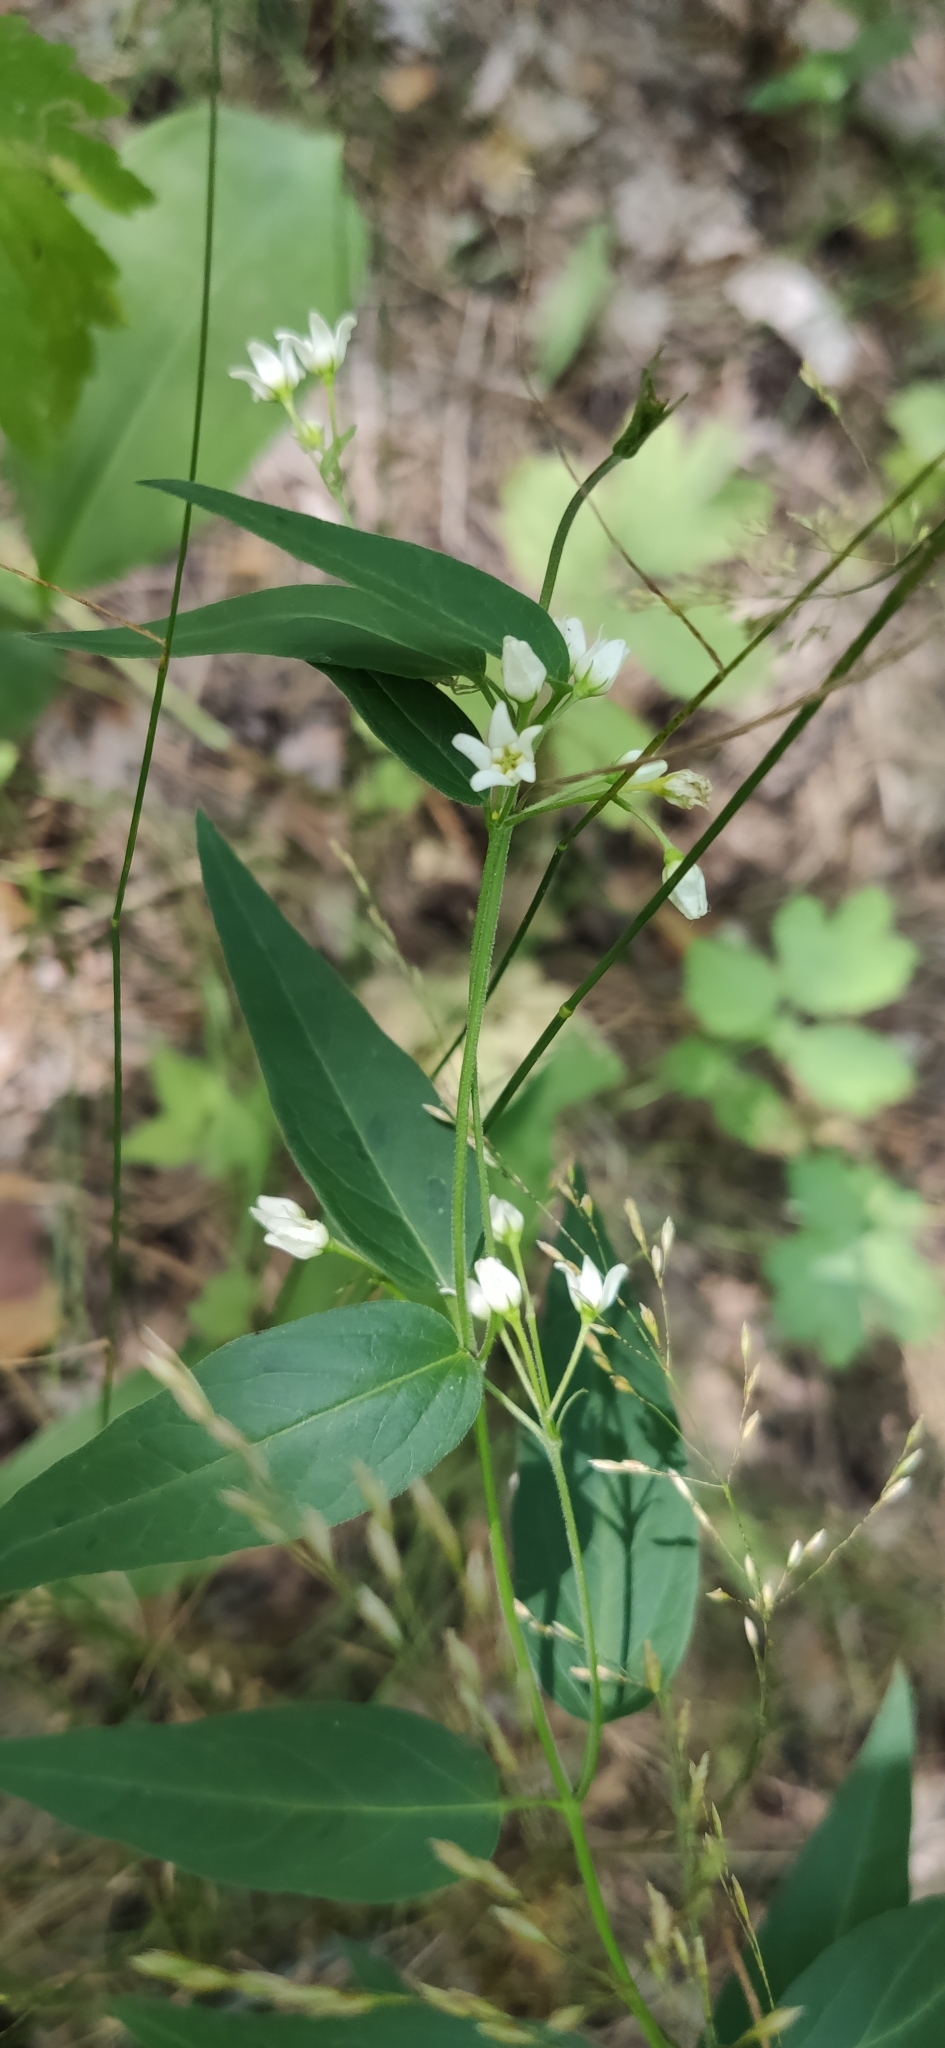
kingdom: Plantae
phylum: Tracheophyta
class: Magnoliopsida
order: Gentianales
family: Apocynaceae
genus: Vincetoxicum
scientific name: Vincetoxicum hirundinaria
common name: White swallowwort
